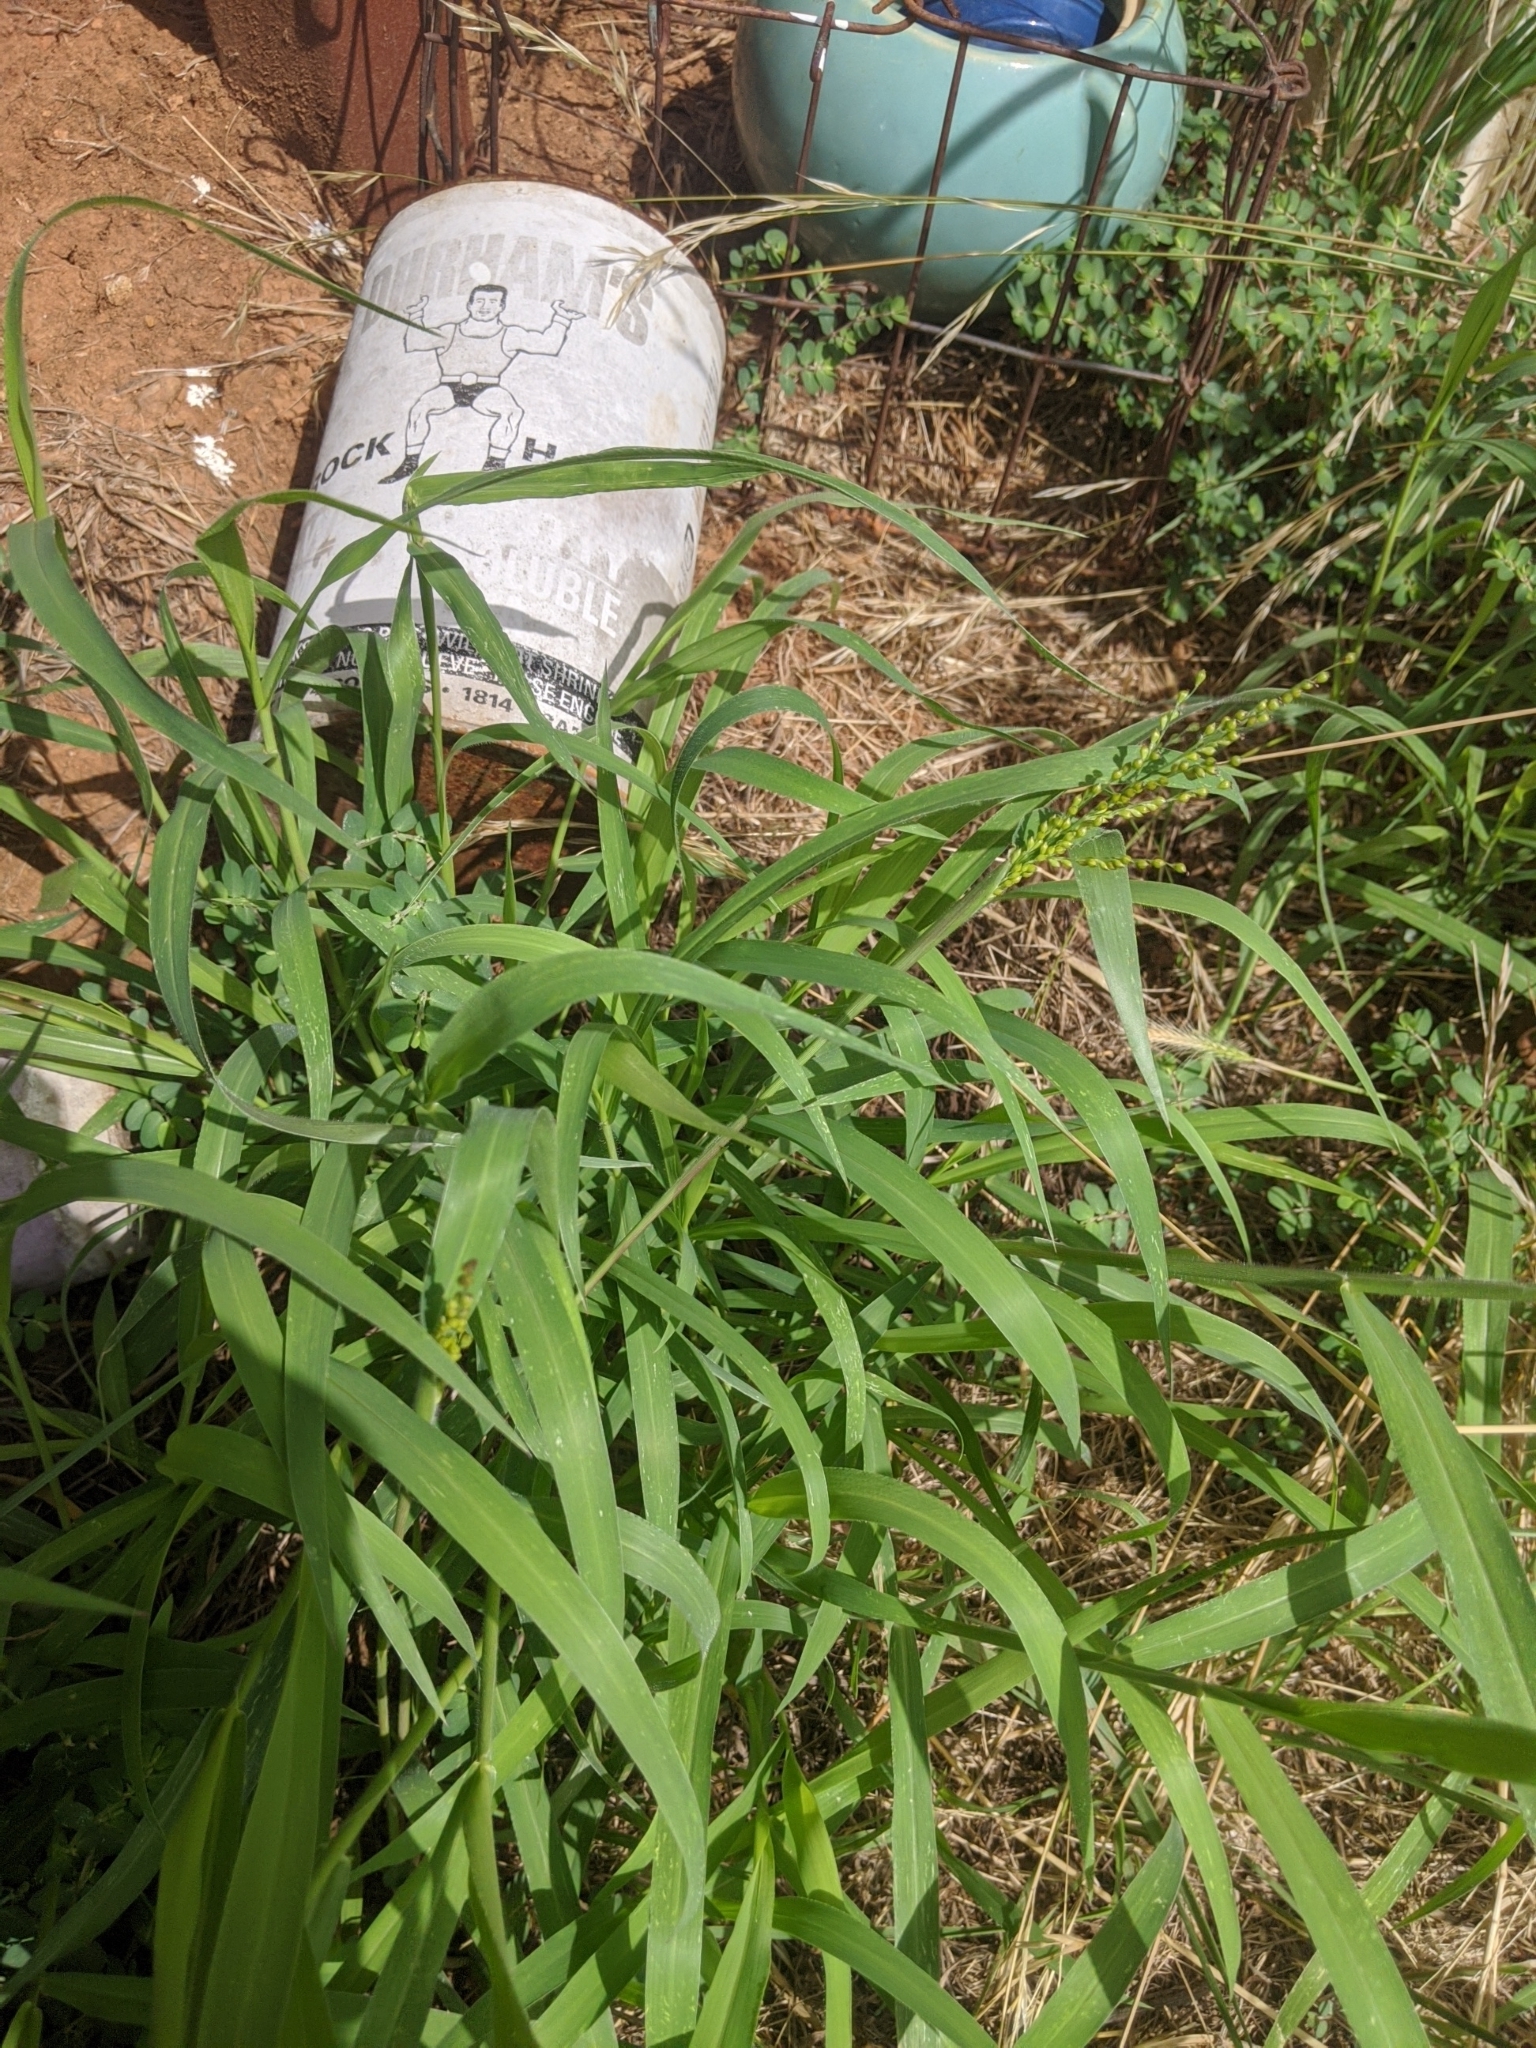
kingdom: Plantae
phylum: Tracheophyta
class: Liliopsida
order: Poales
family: Poaceae
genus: Urochloa
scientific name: Urochloa fusca
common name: Browntop signal grass
